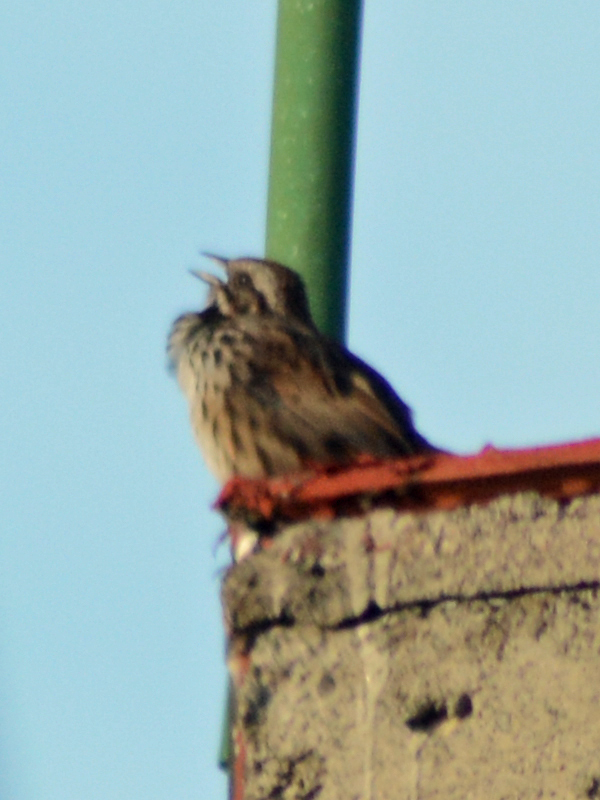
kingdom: Animalia
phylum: Chordata
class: Aves
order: Passeriformes
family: Passerellidae
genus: Melospiza
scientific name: Melospiza melodia
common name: Song sparrow
